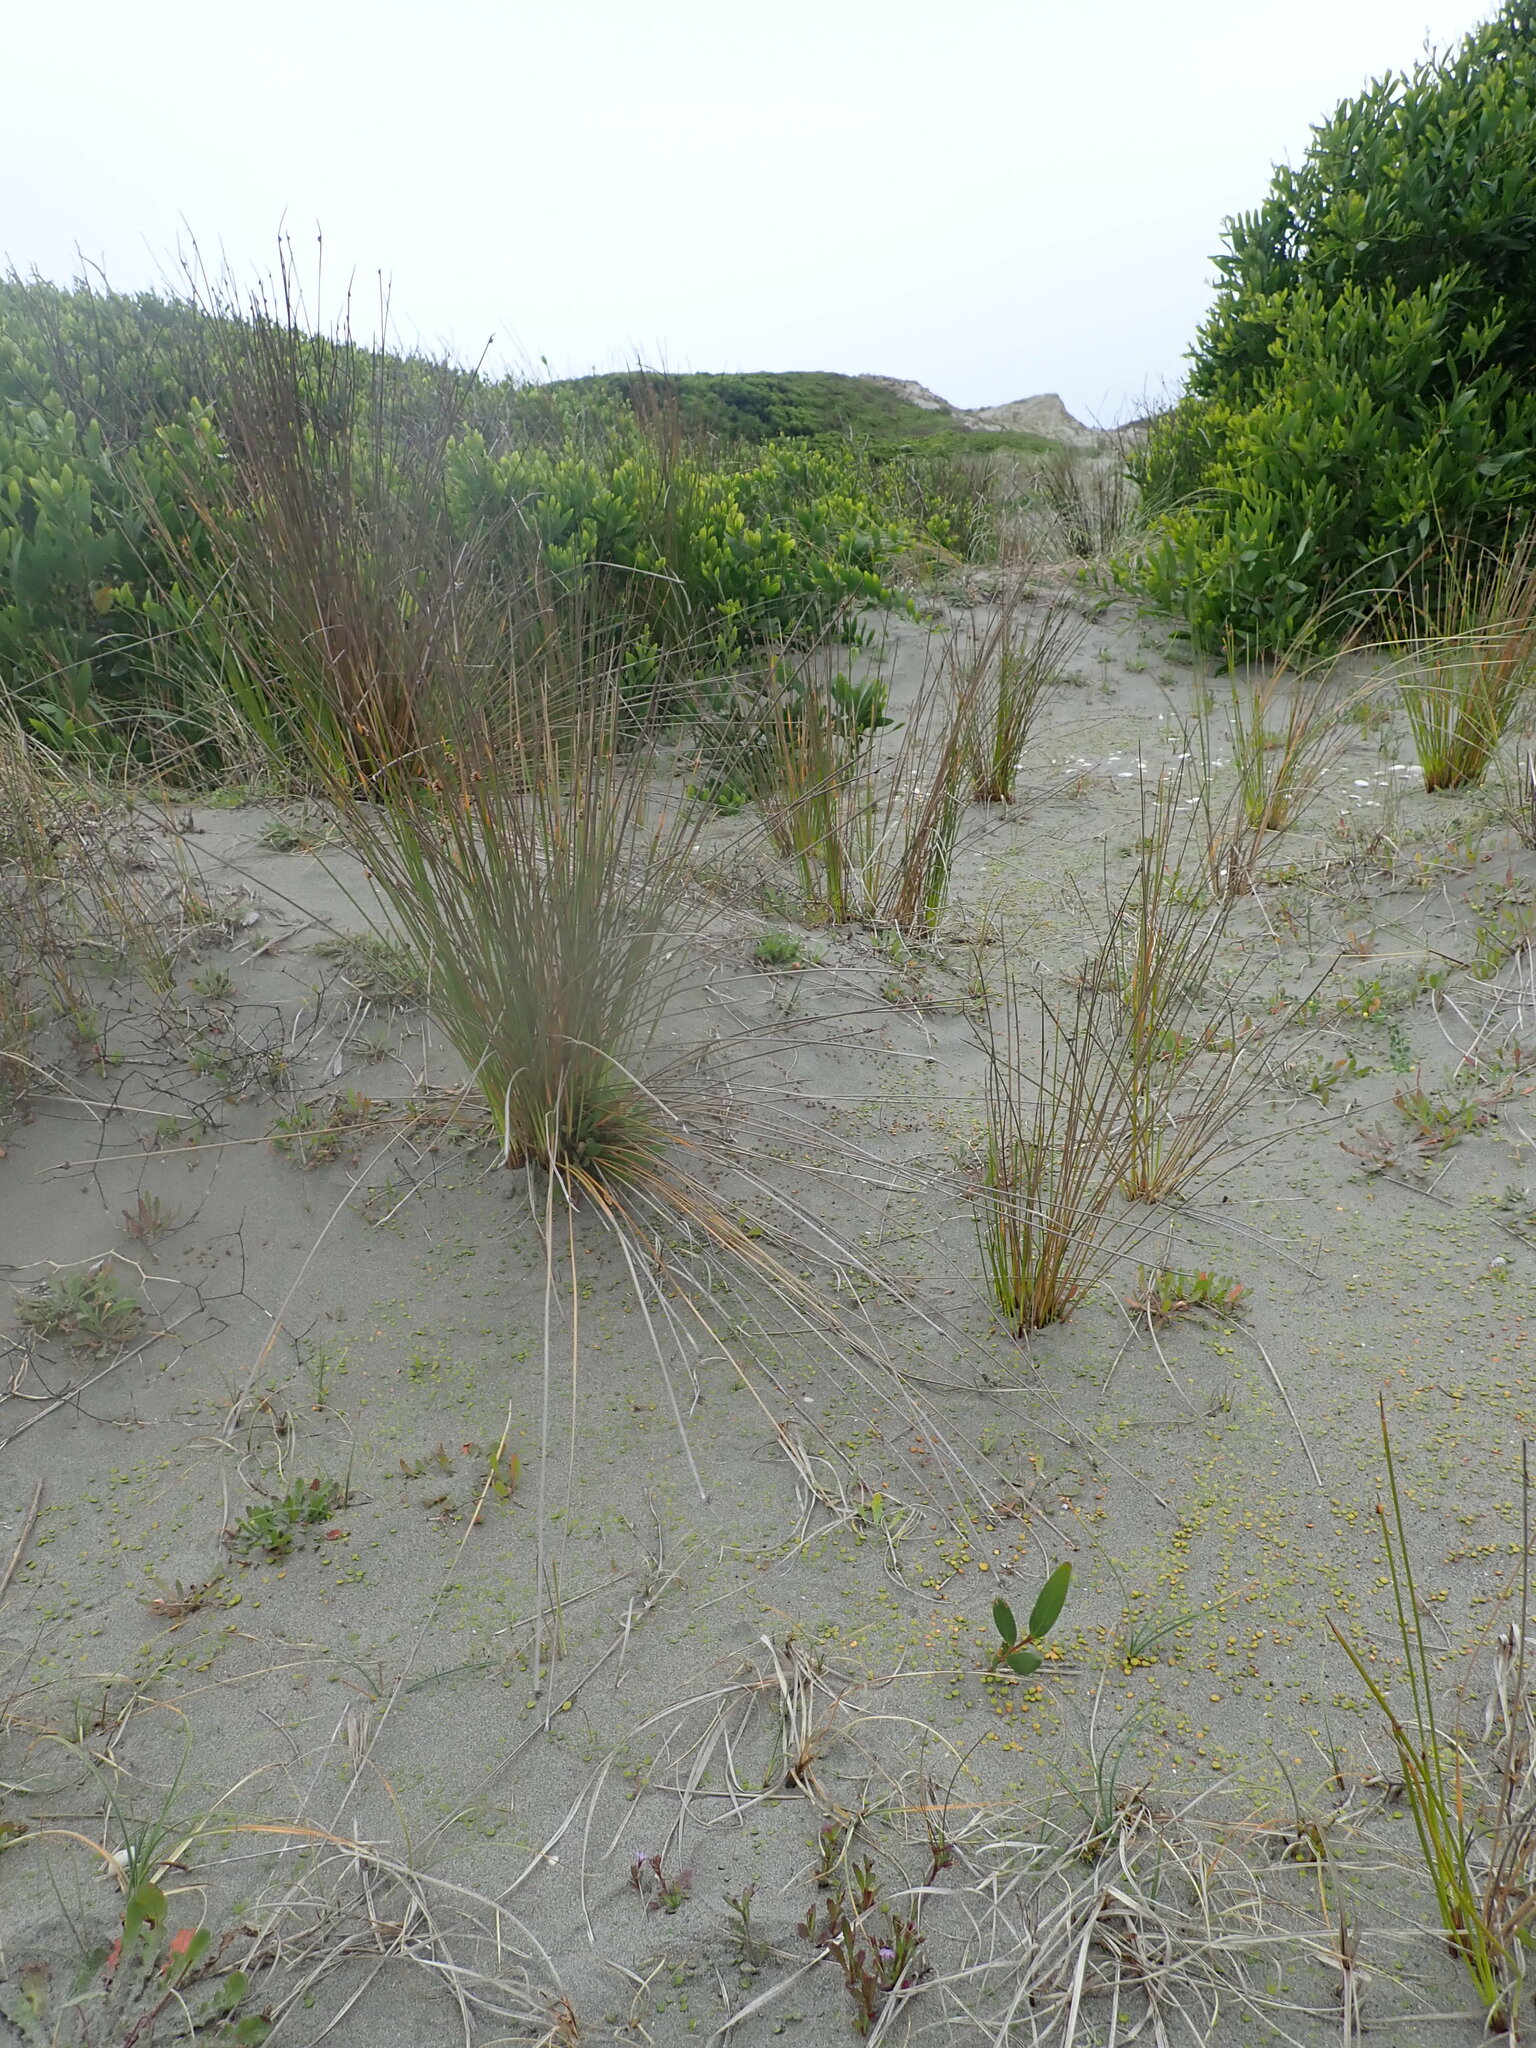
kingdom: Plantae
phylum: Tracheophyta
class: Magnoliopsida
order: Fabales
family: Fabaceae
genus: Acacia
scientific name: Acacia longifolia
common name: Sydney golden wattle
